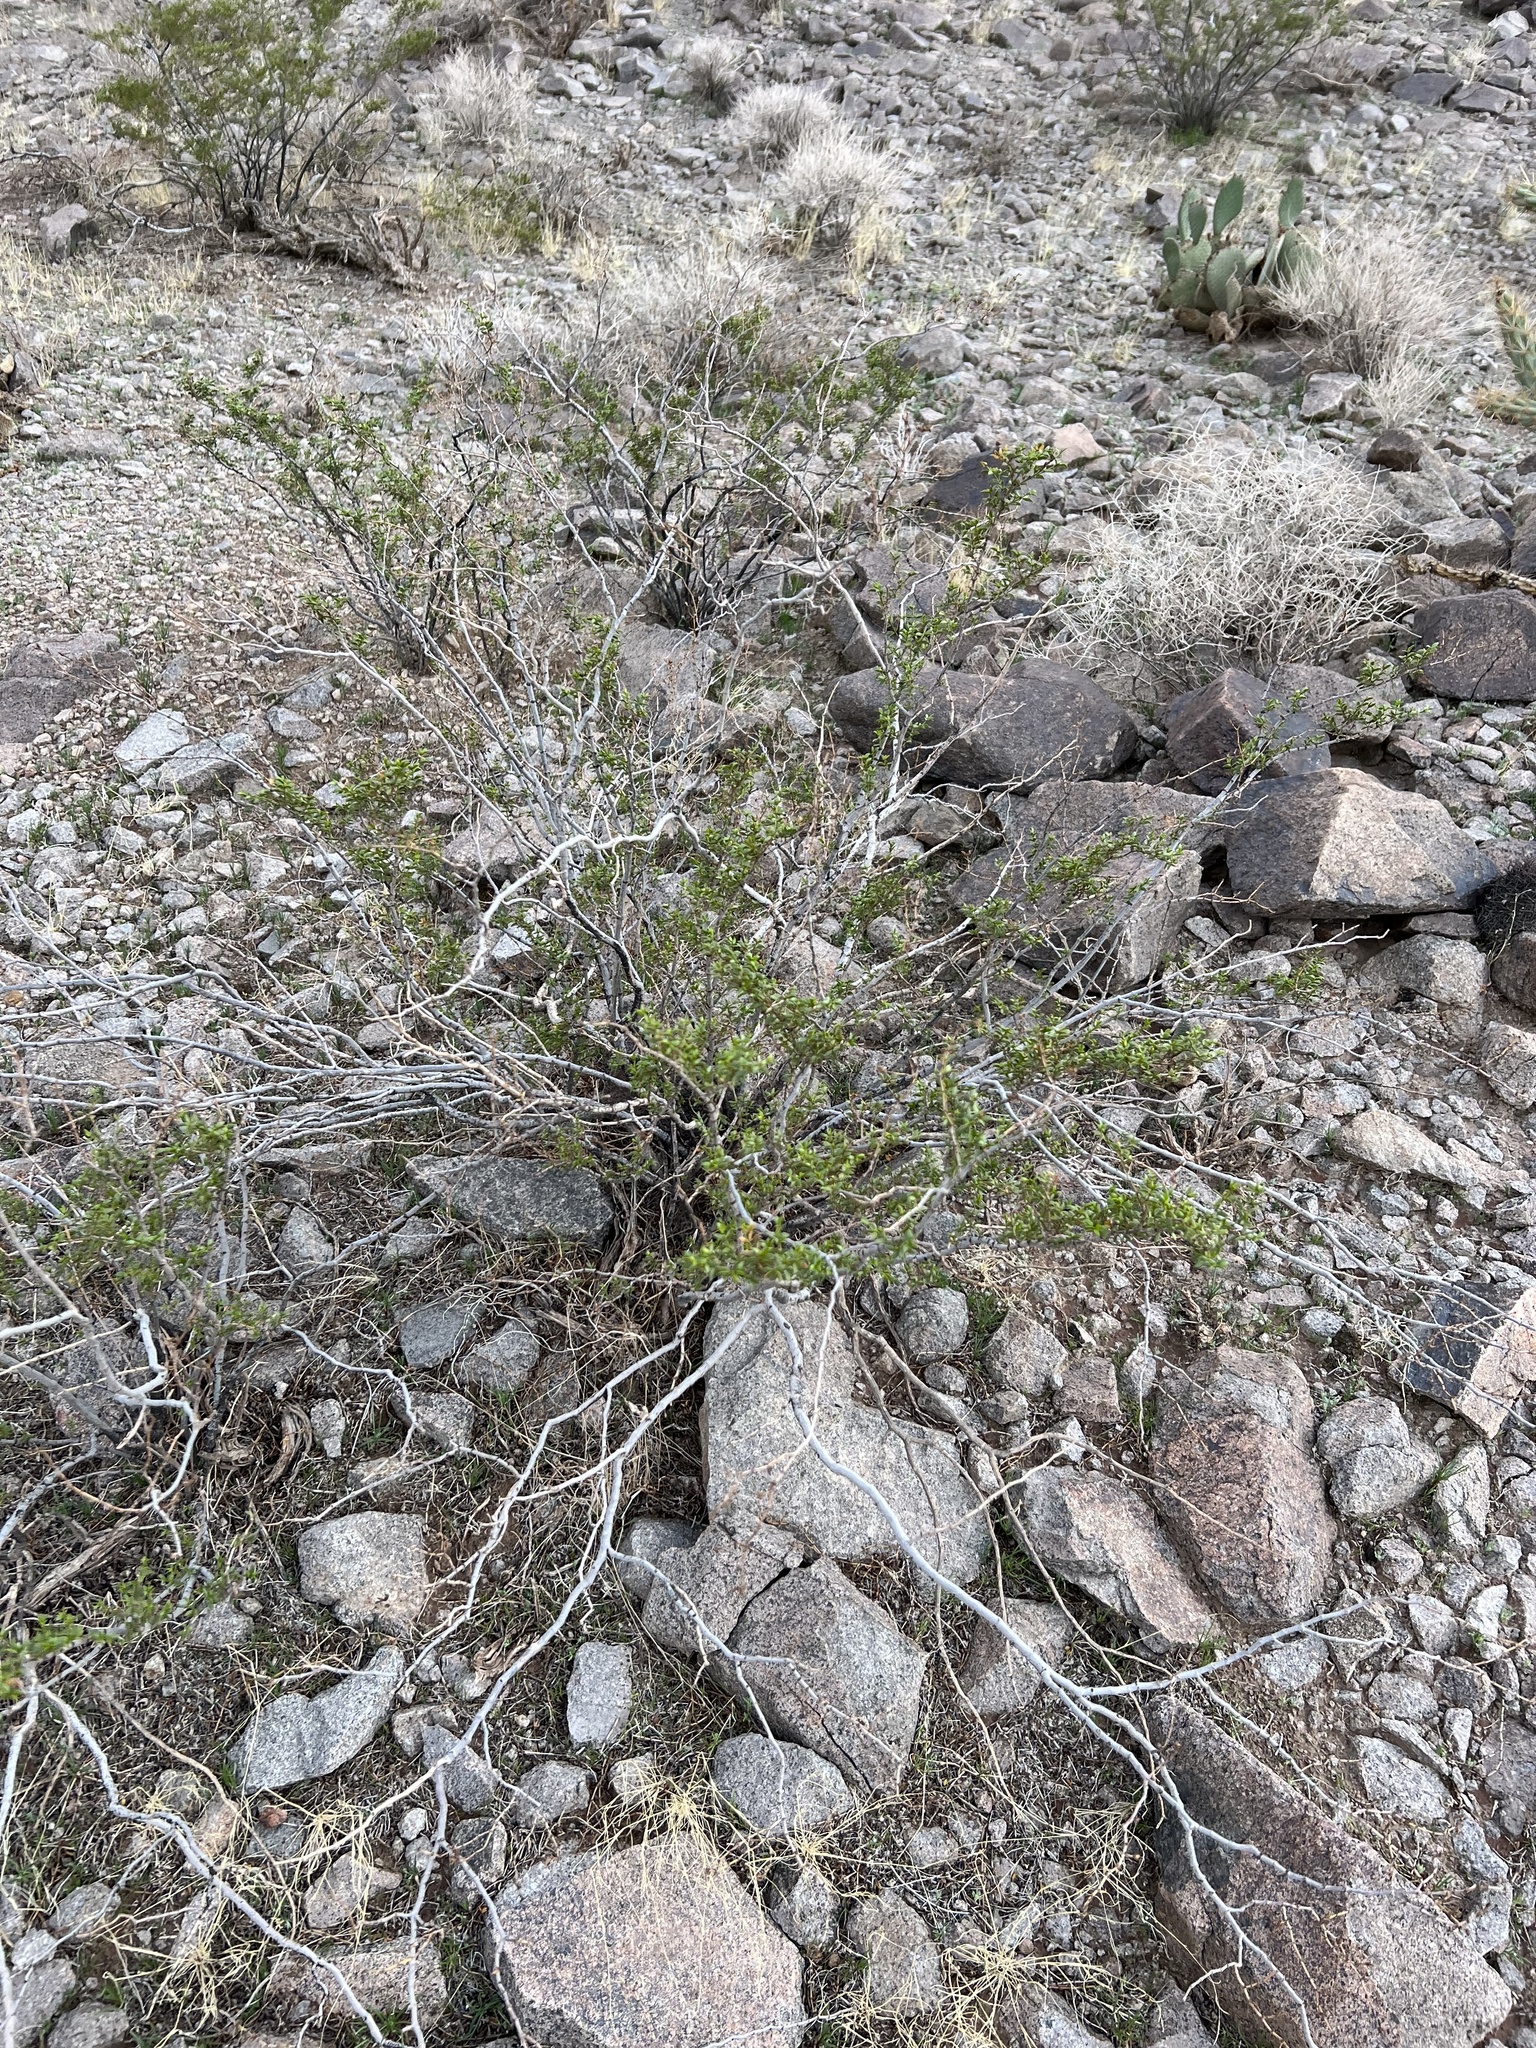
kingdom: Plantae
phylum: Tracheophyta
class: Magnoliopsida
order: Zygophyllales
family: Zygophyllaceae
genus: Larrea
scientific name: Larrea tridentata
